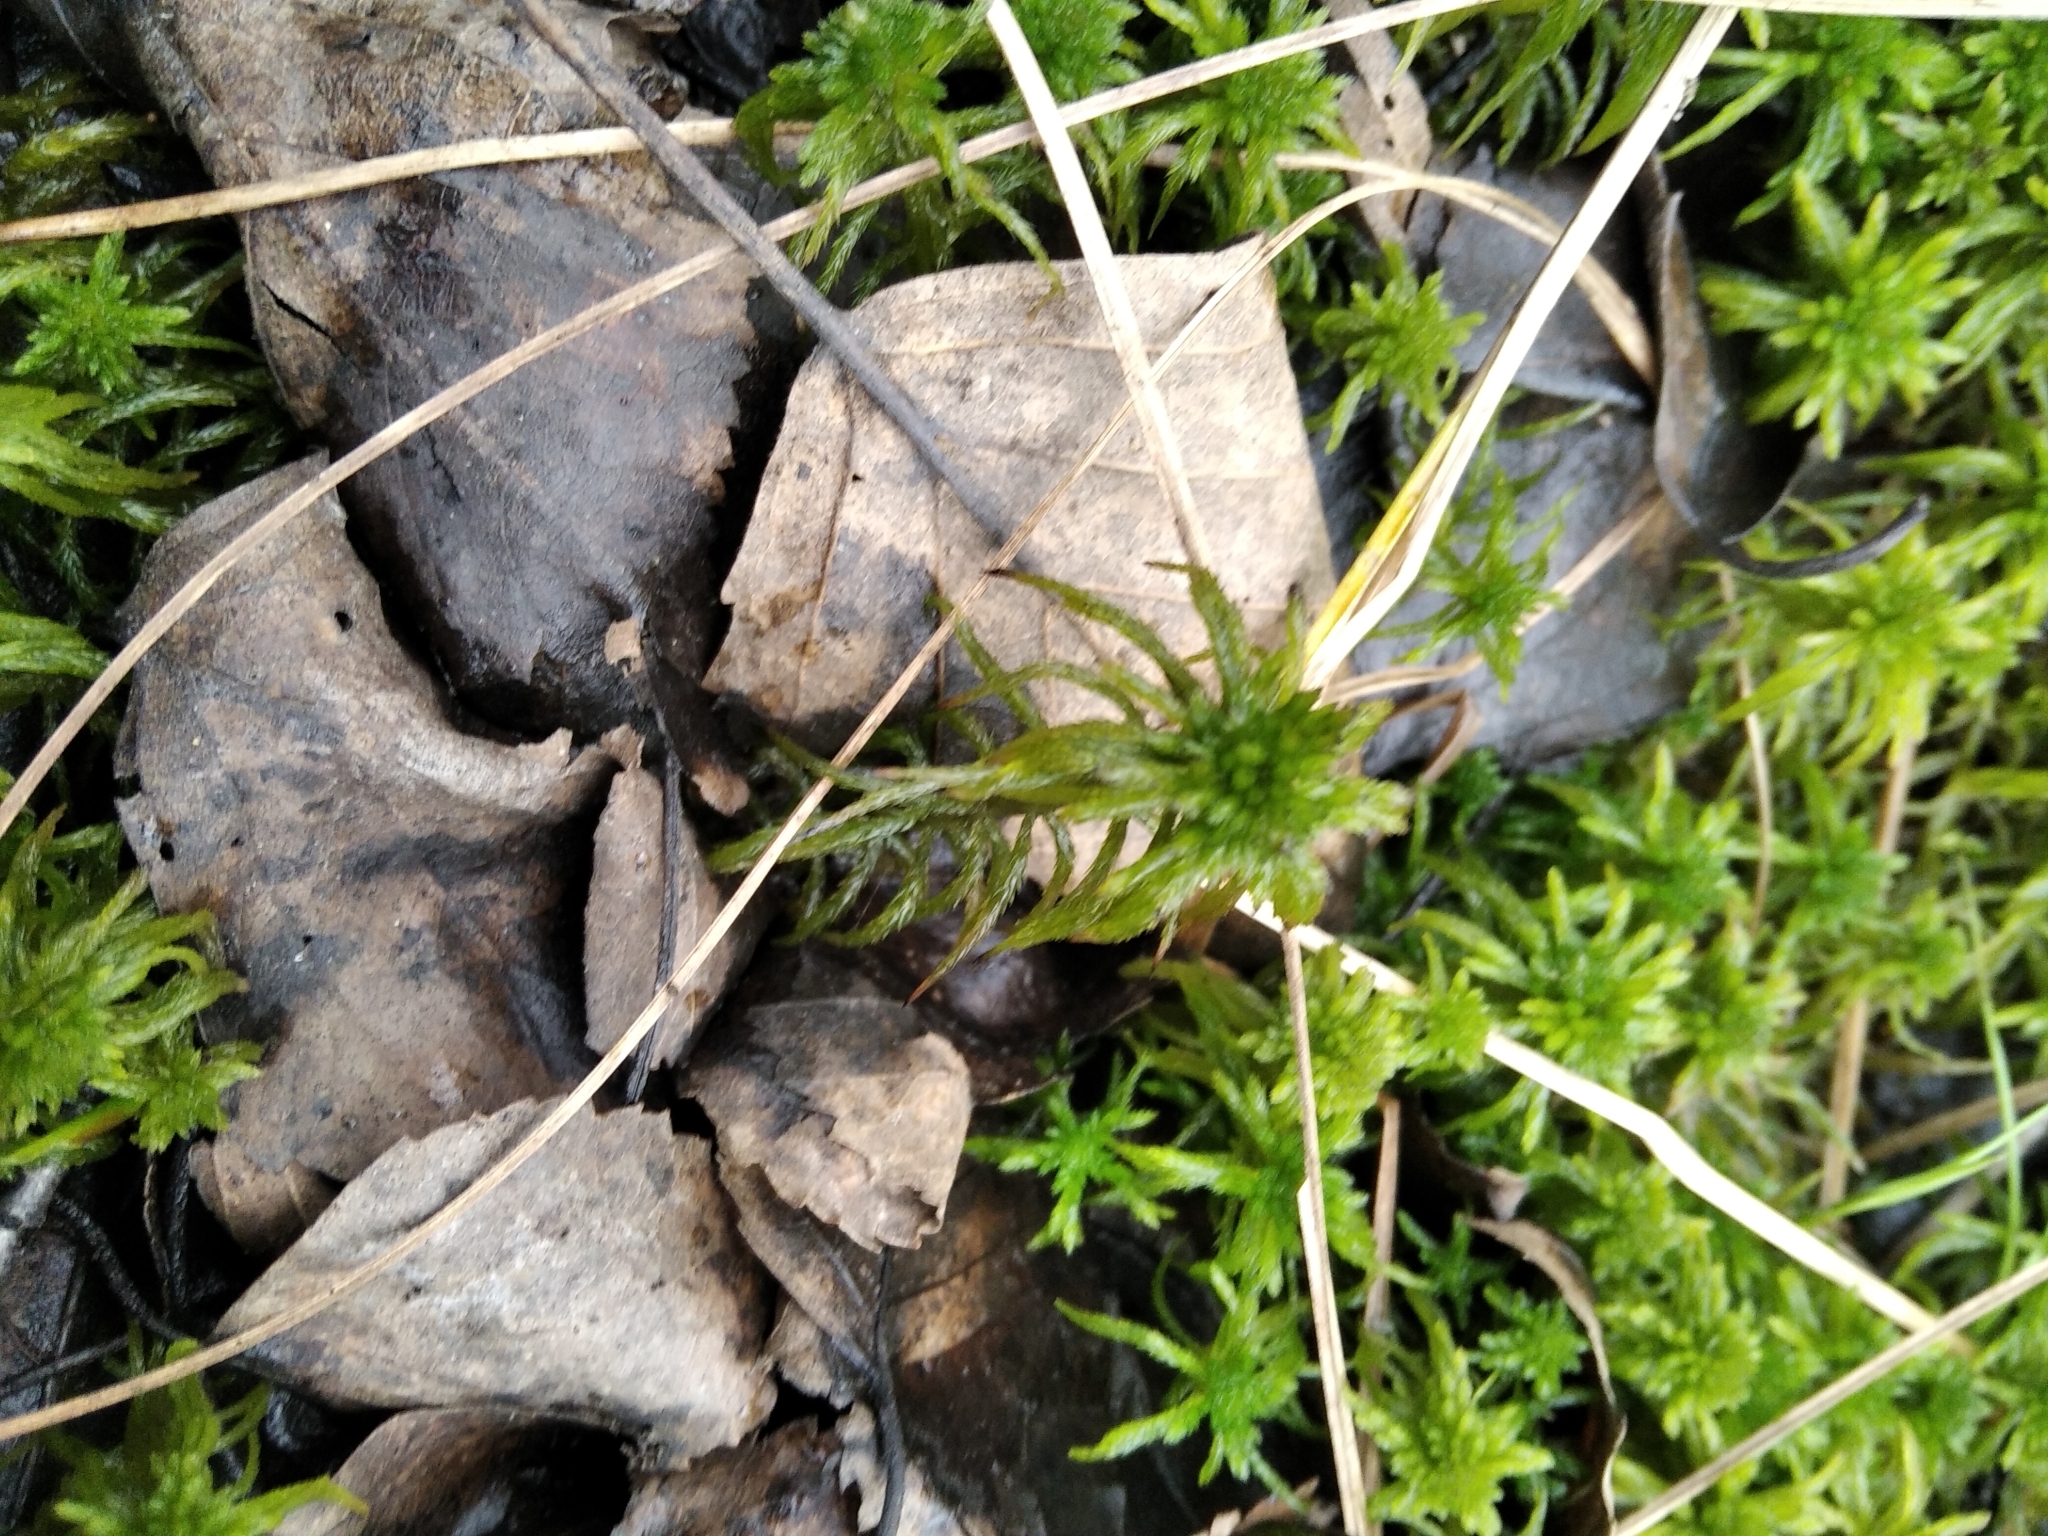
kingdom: Plantae
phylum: Bryophyta
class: Sphagnopsida
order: Sphagnales
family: Sphagnaceae
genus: Sphagnum
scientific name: Sphagnum riparium
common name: Streamside peat moss
